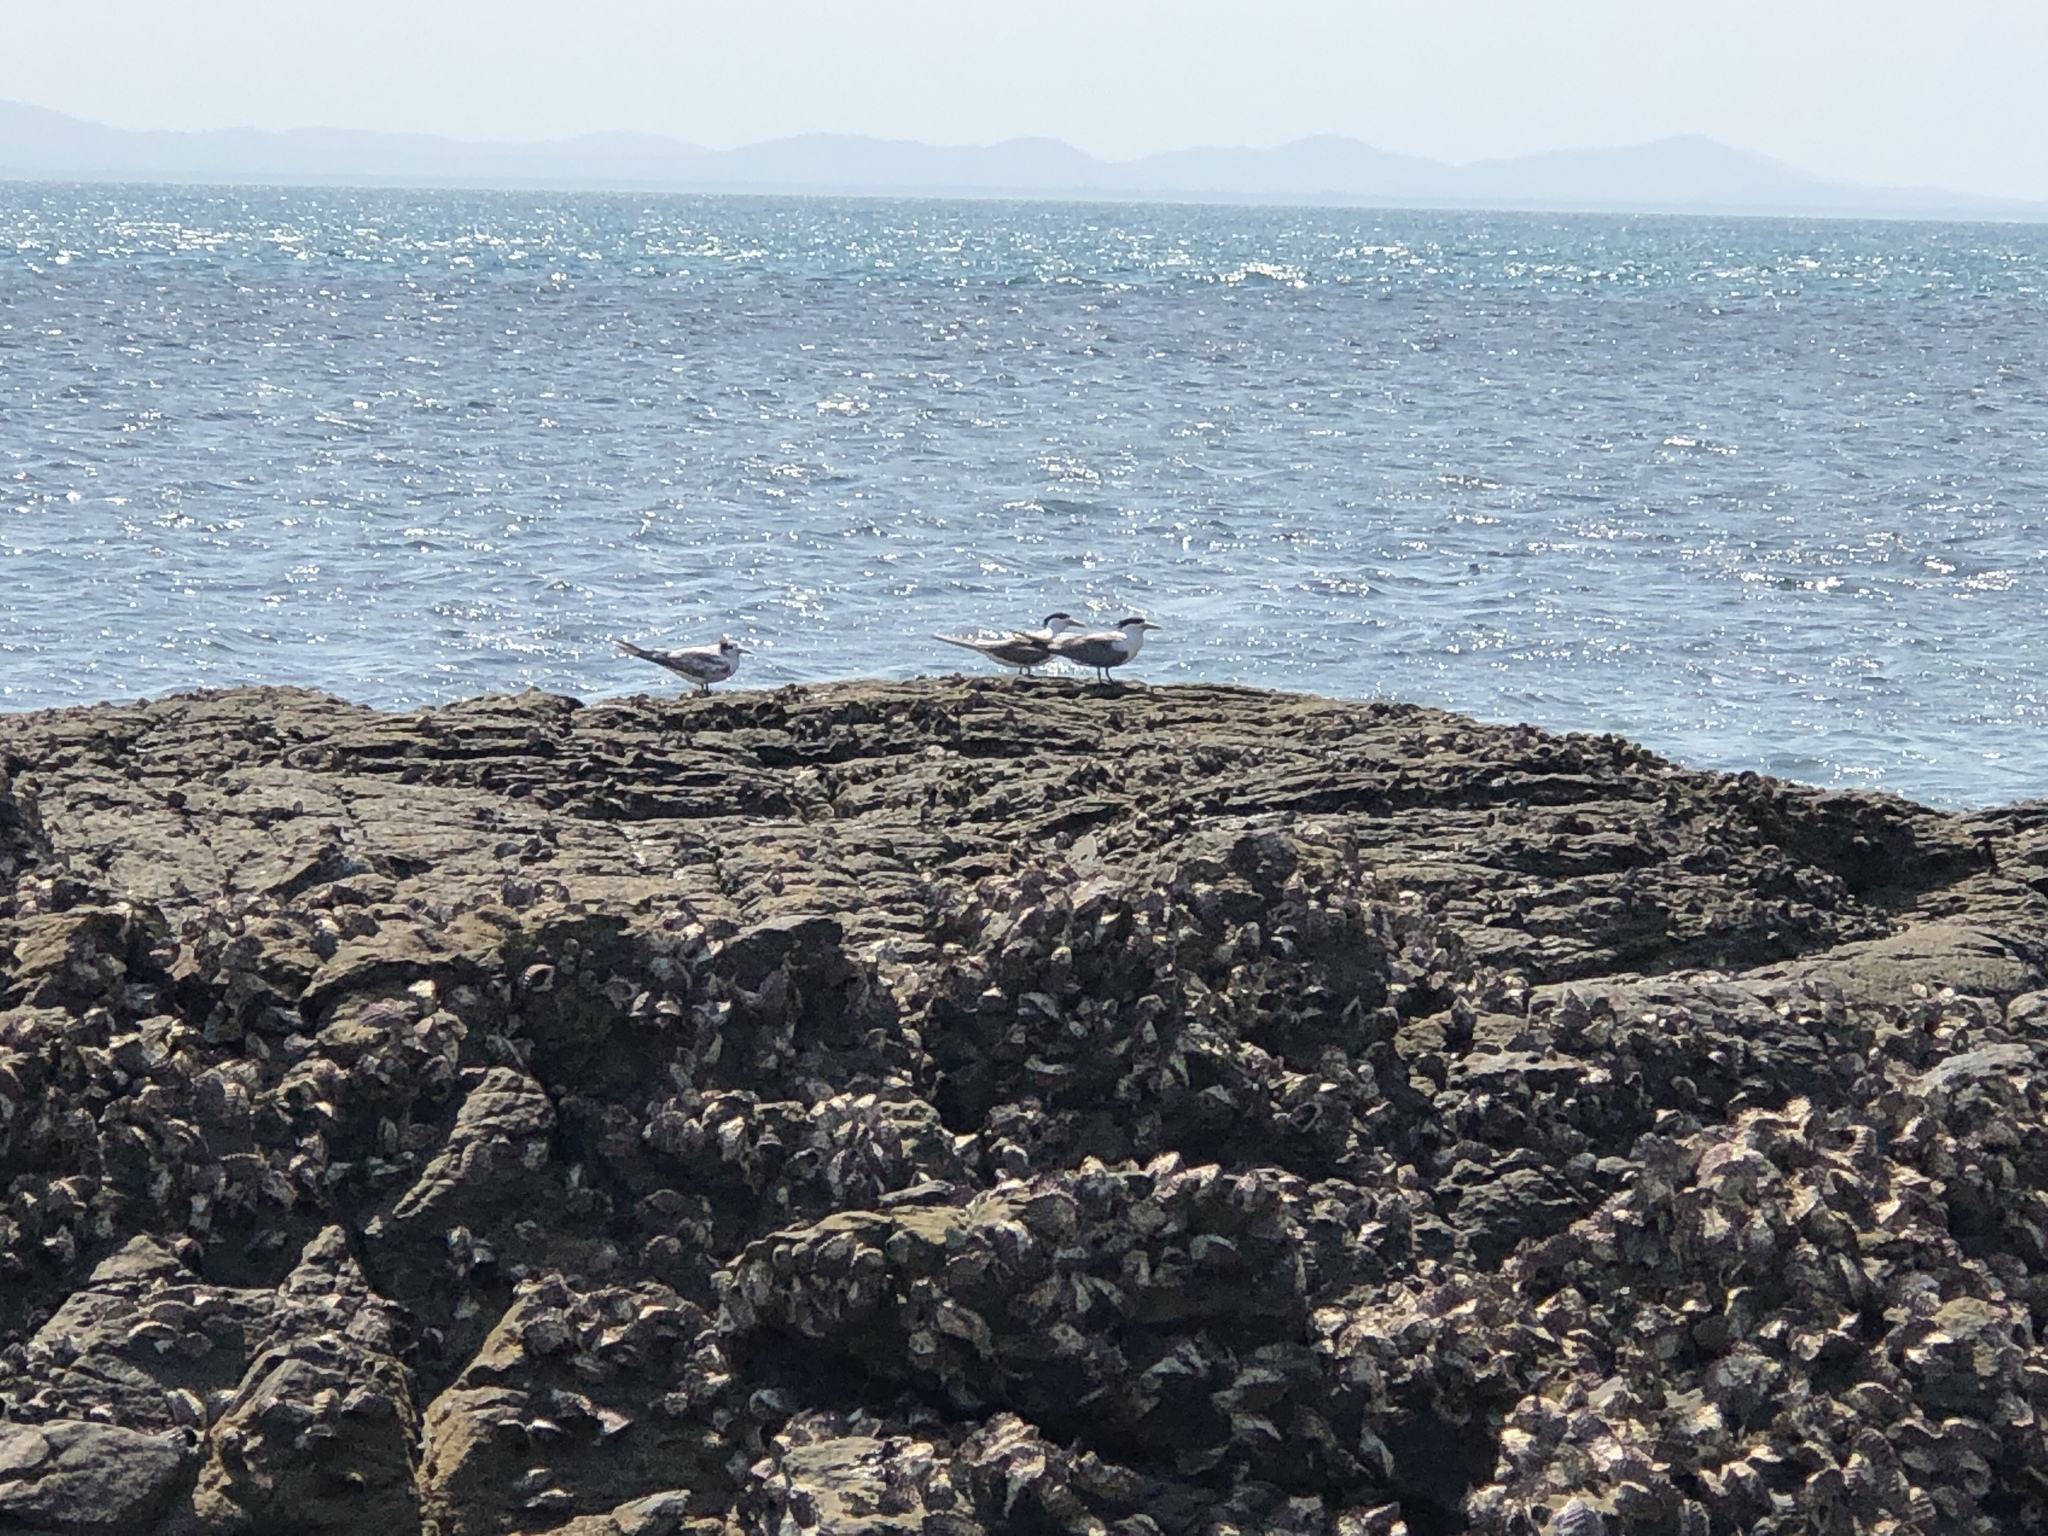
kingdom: Animalia
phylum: Chordata
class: Aves
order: Charadriiformes
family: Laridae
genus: Thalasseus
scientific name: Thalasseus bergii
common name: Greater crested tern
